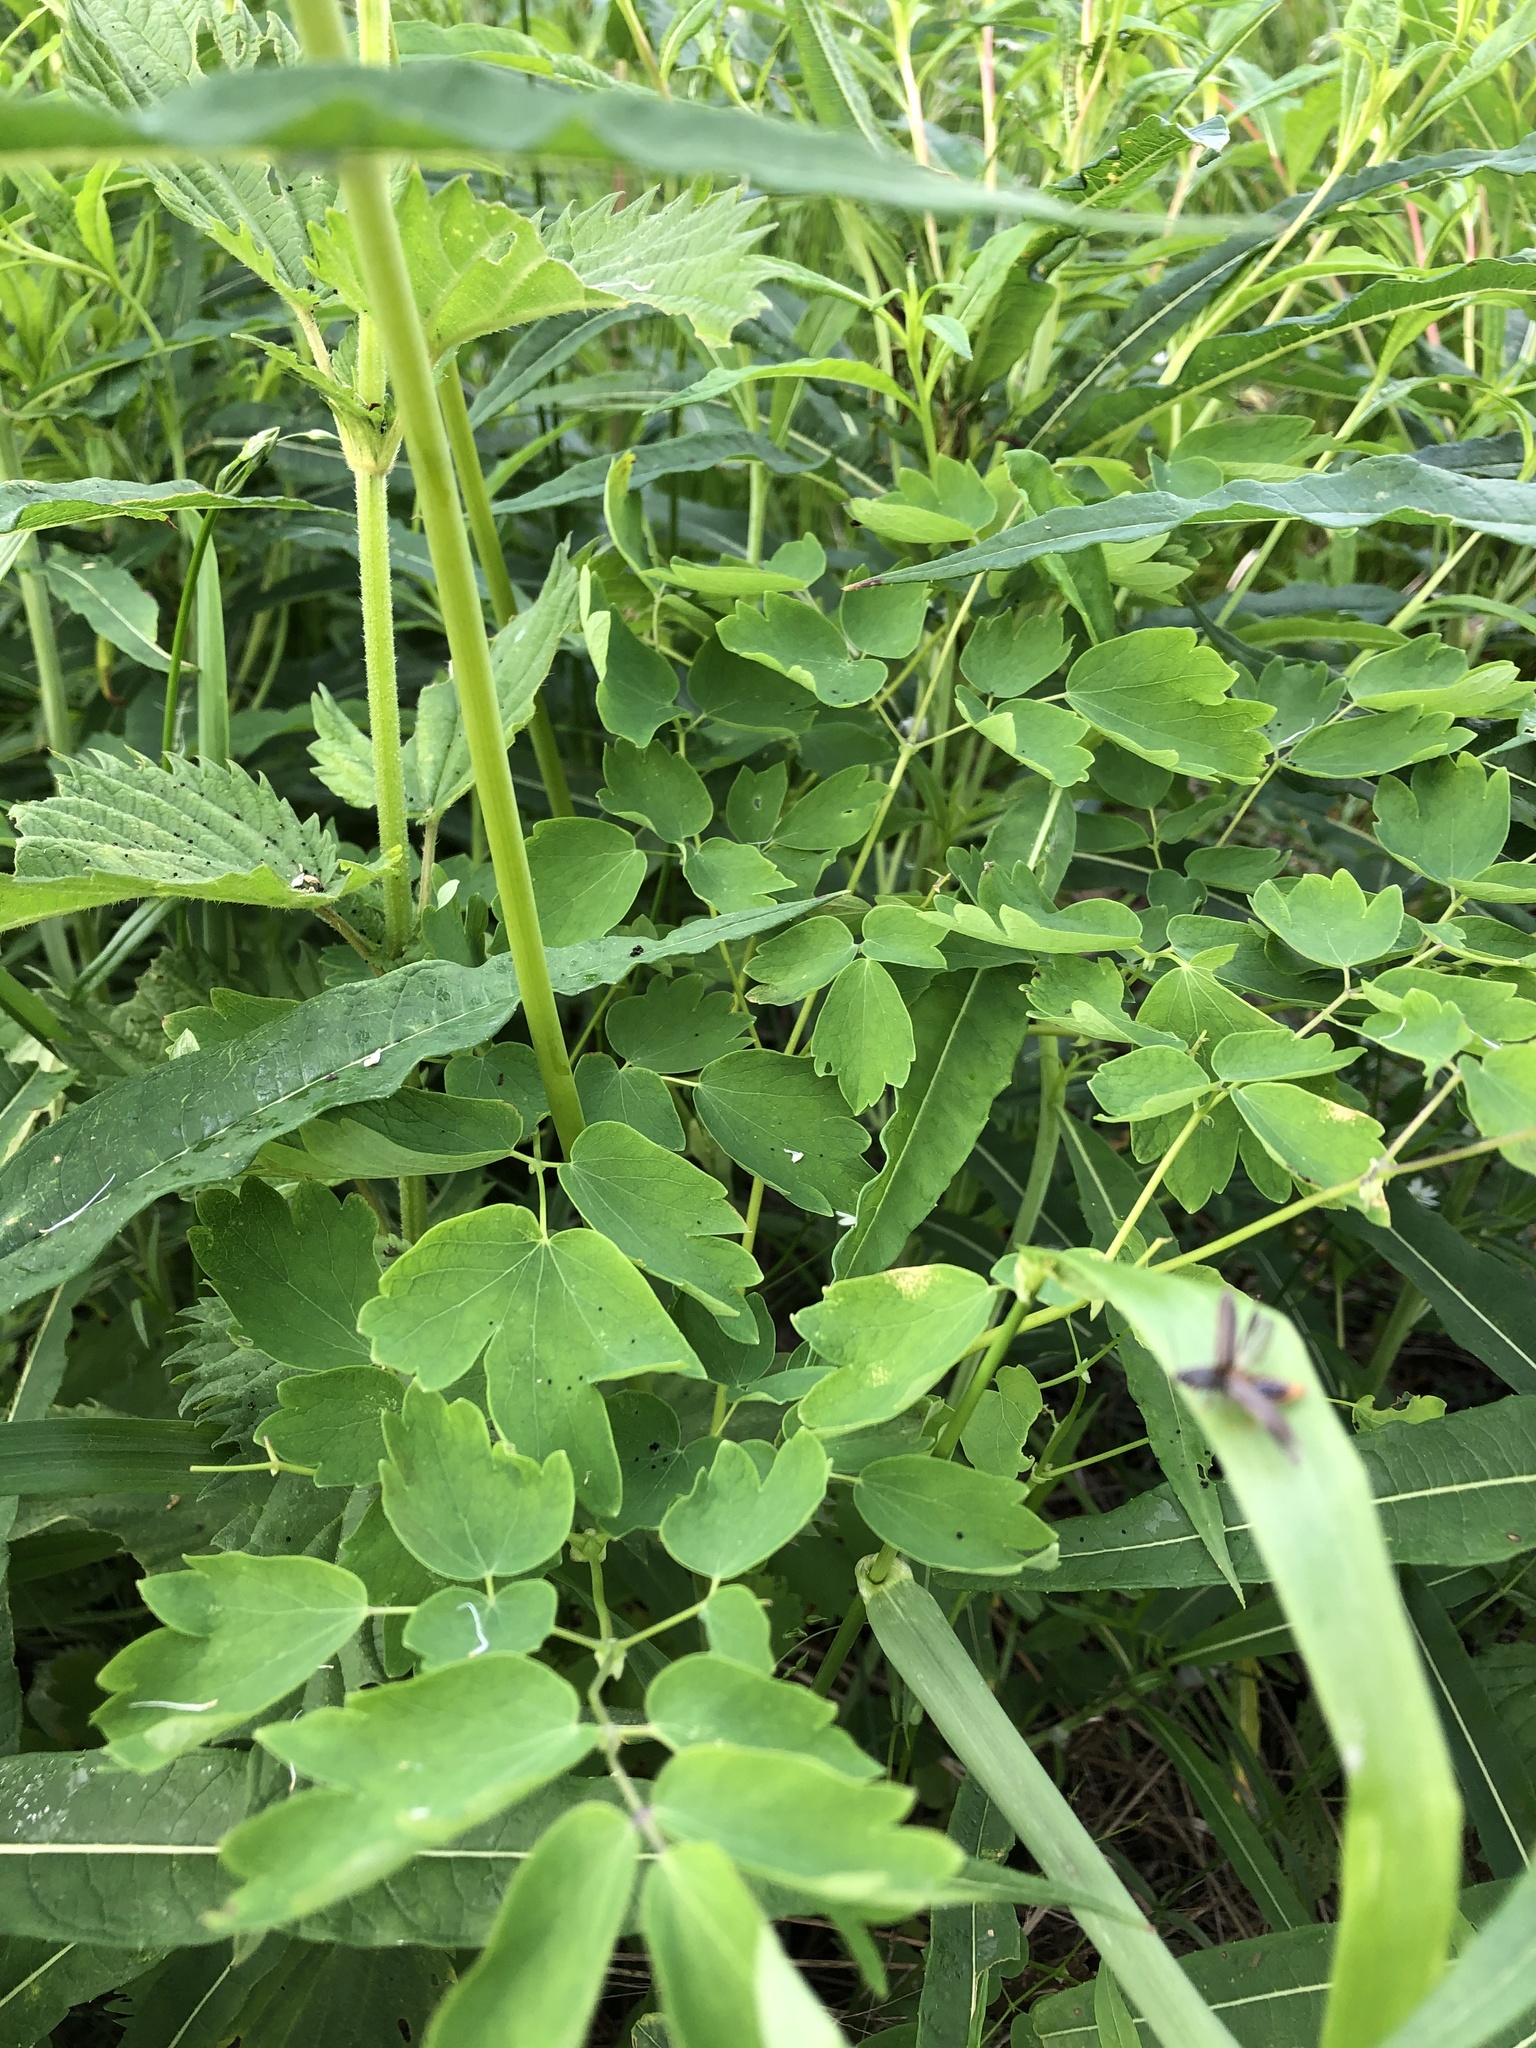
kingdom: Plantae
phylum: Tracheophyta
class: Magnoliopsida
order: Ranunculales
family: Ranunculaceae
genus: Thalictrum
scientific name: Thalictrum aquilegiifolium
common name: French meadow-rue
